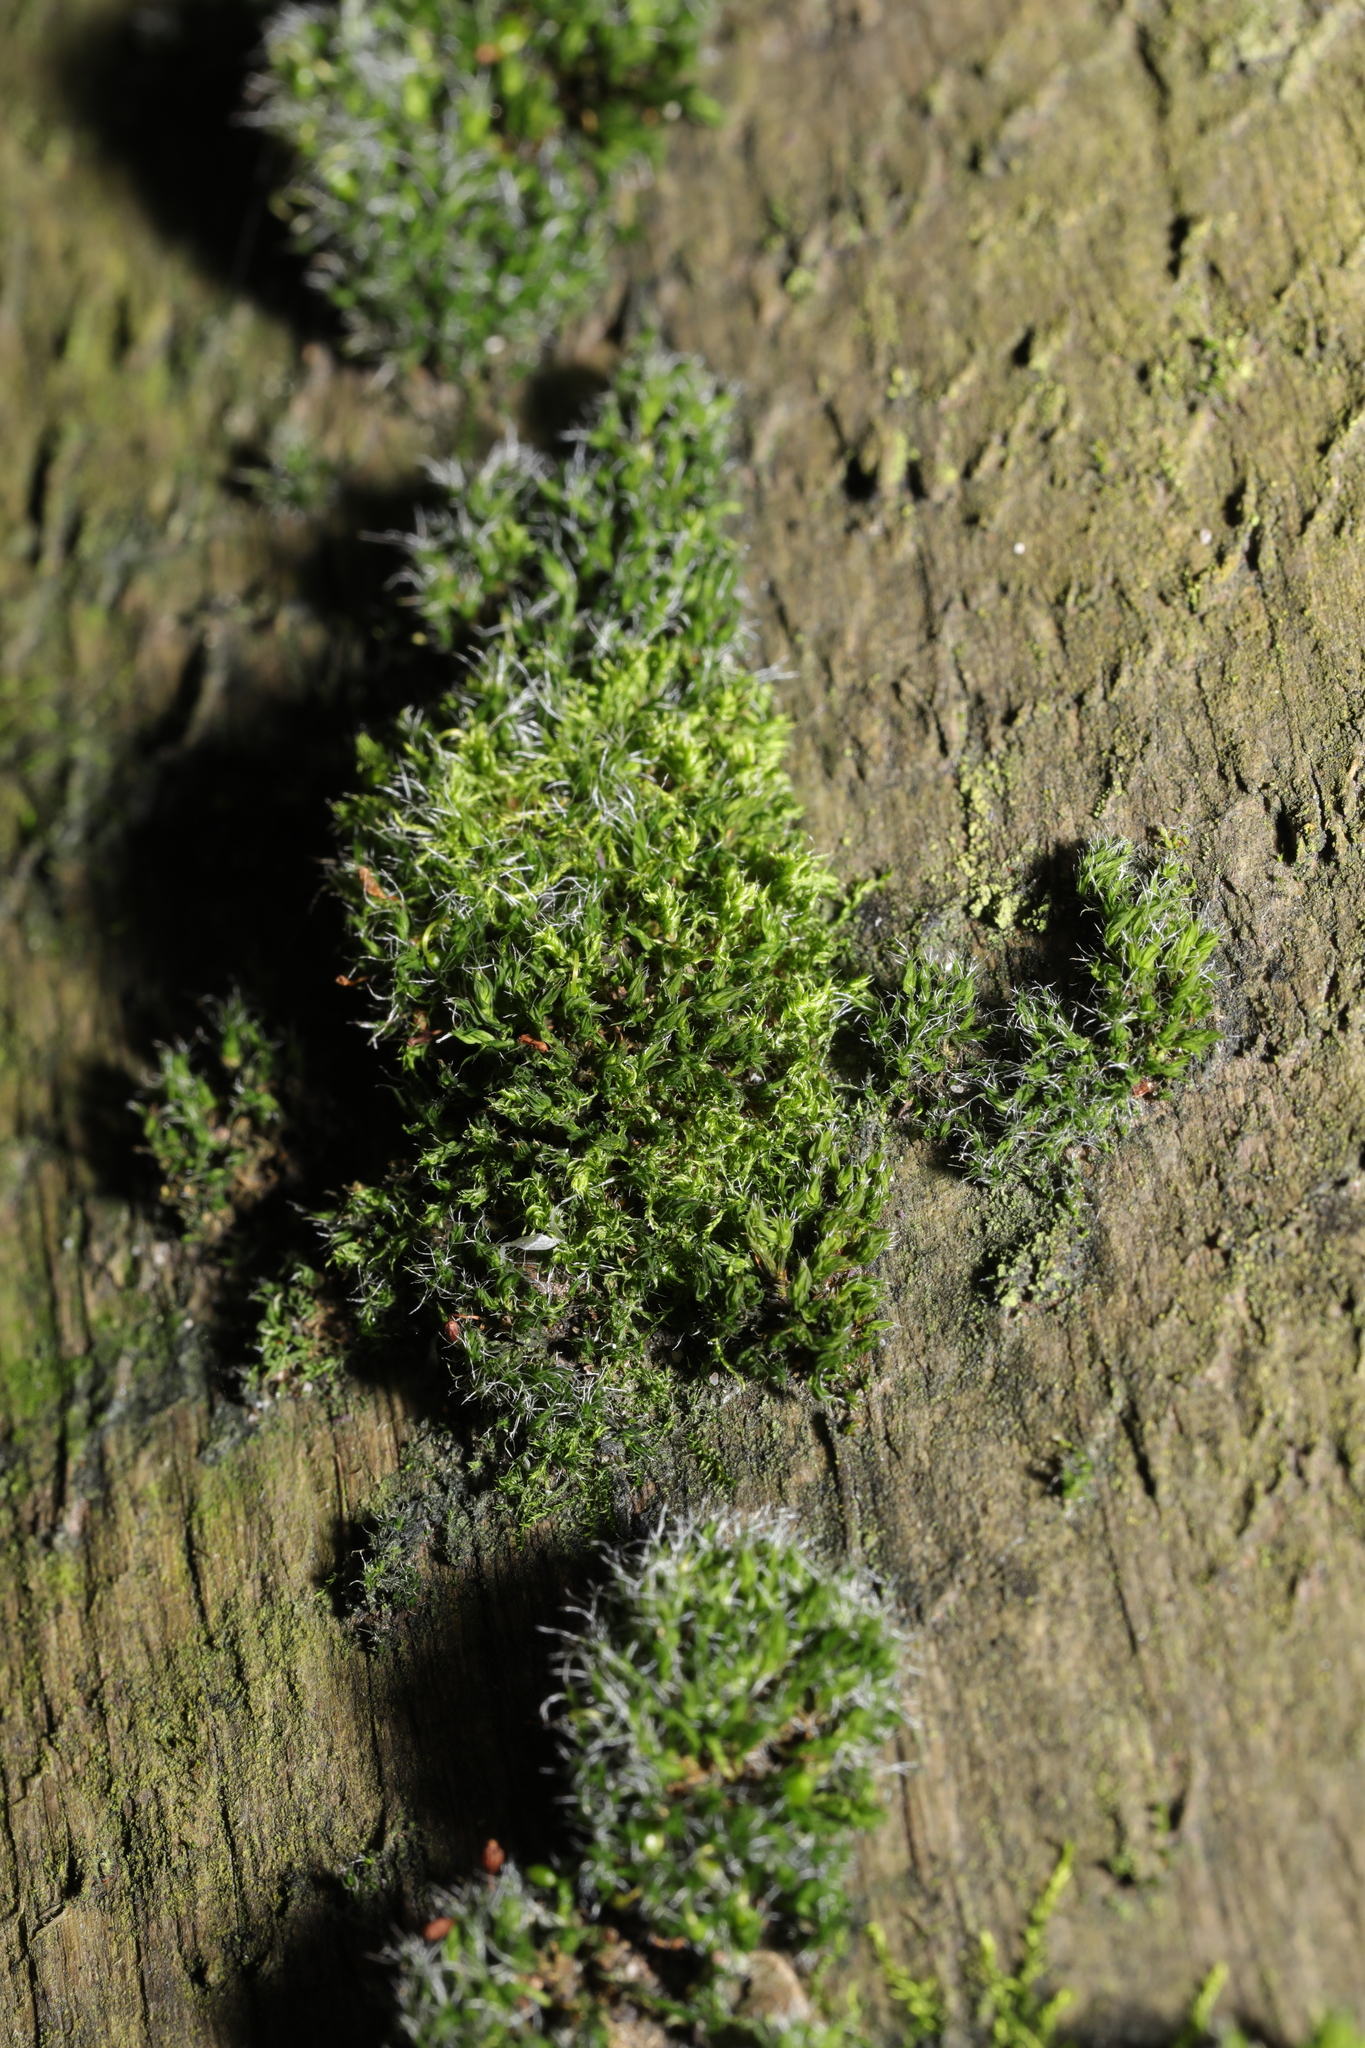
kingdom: Plantae
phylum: Bryophyta
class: Bryopsida
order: Grimmiales
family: Grimmiaceae
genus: Grimmia
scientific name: Grimmia pulvinata
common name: Grey-cushioned grimmia
